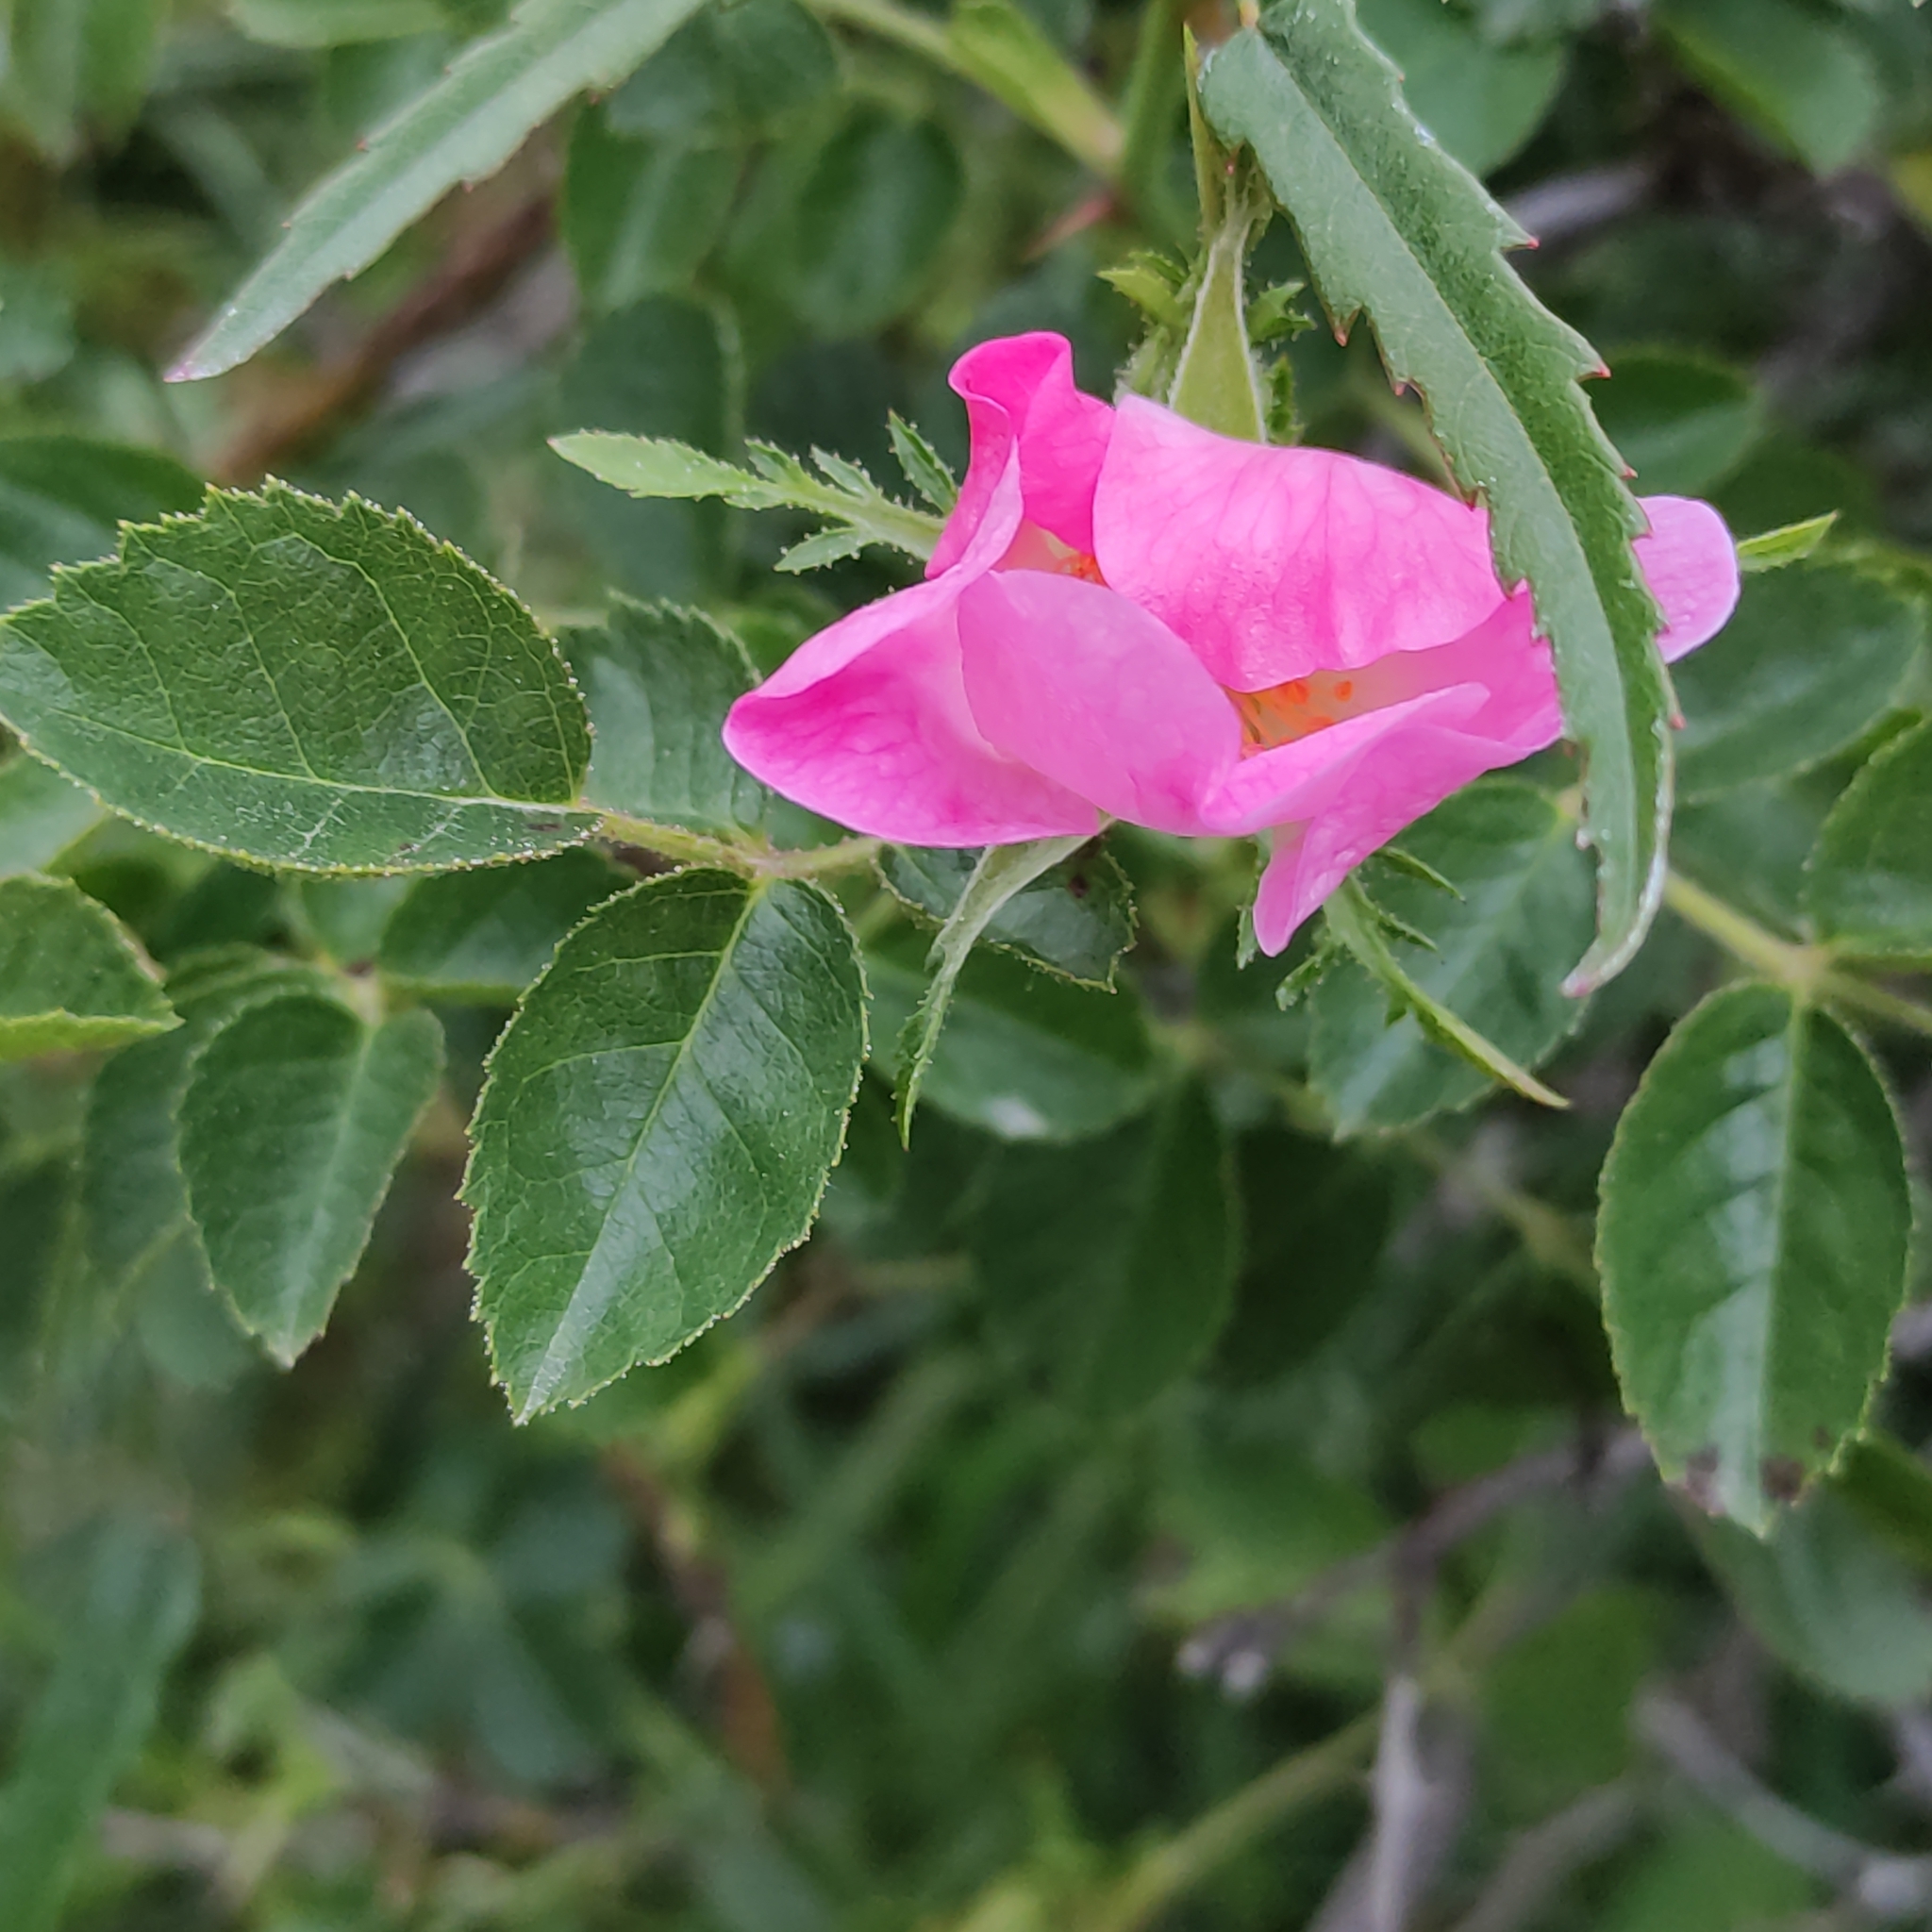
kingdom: Plantae
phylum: Tracheophyta
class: Magnoliopsida
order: Rosales
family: Rosaceae
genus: Rosa
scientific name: Rosa rubiginosa
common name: Sweet-briar
